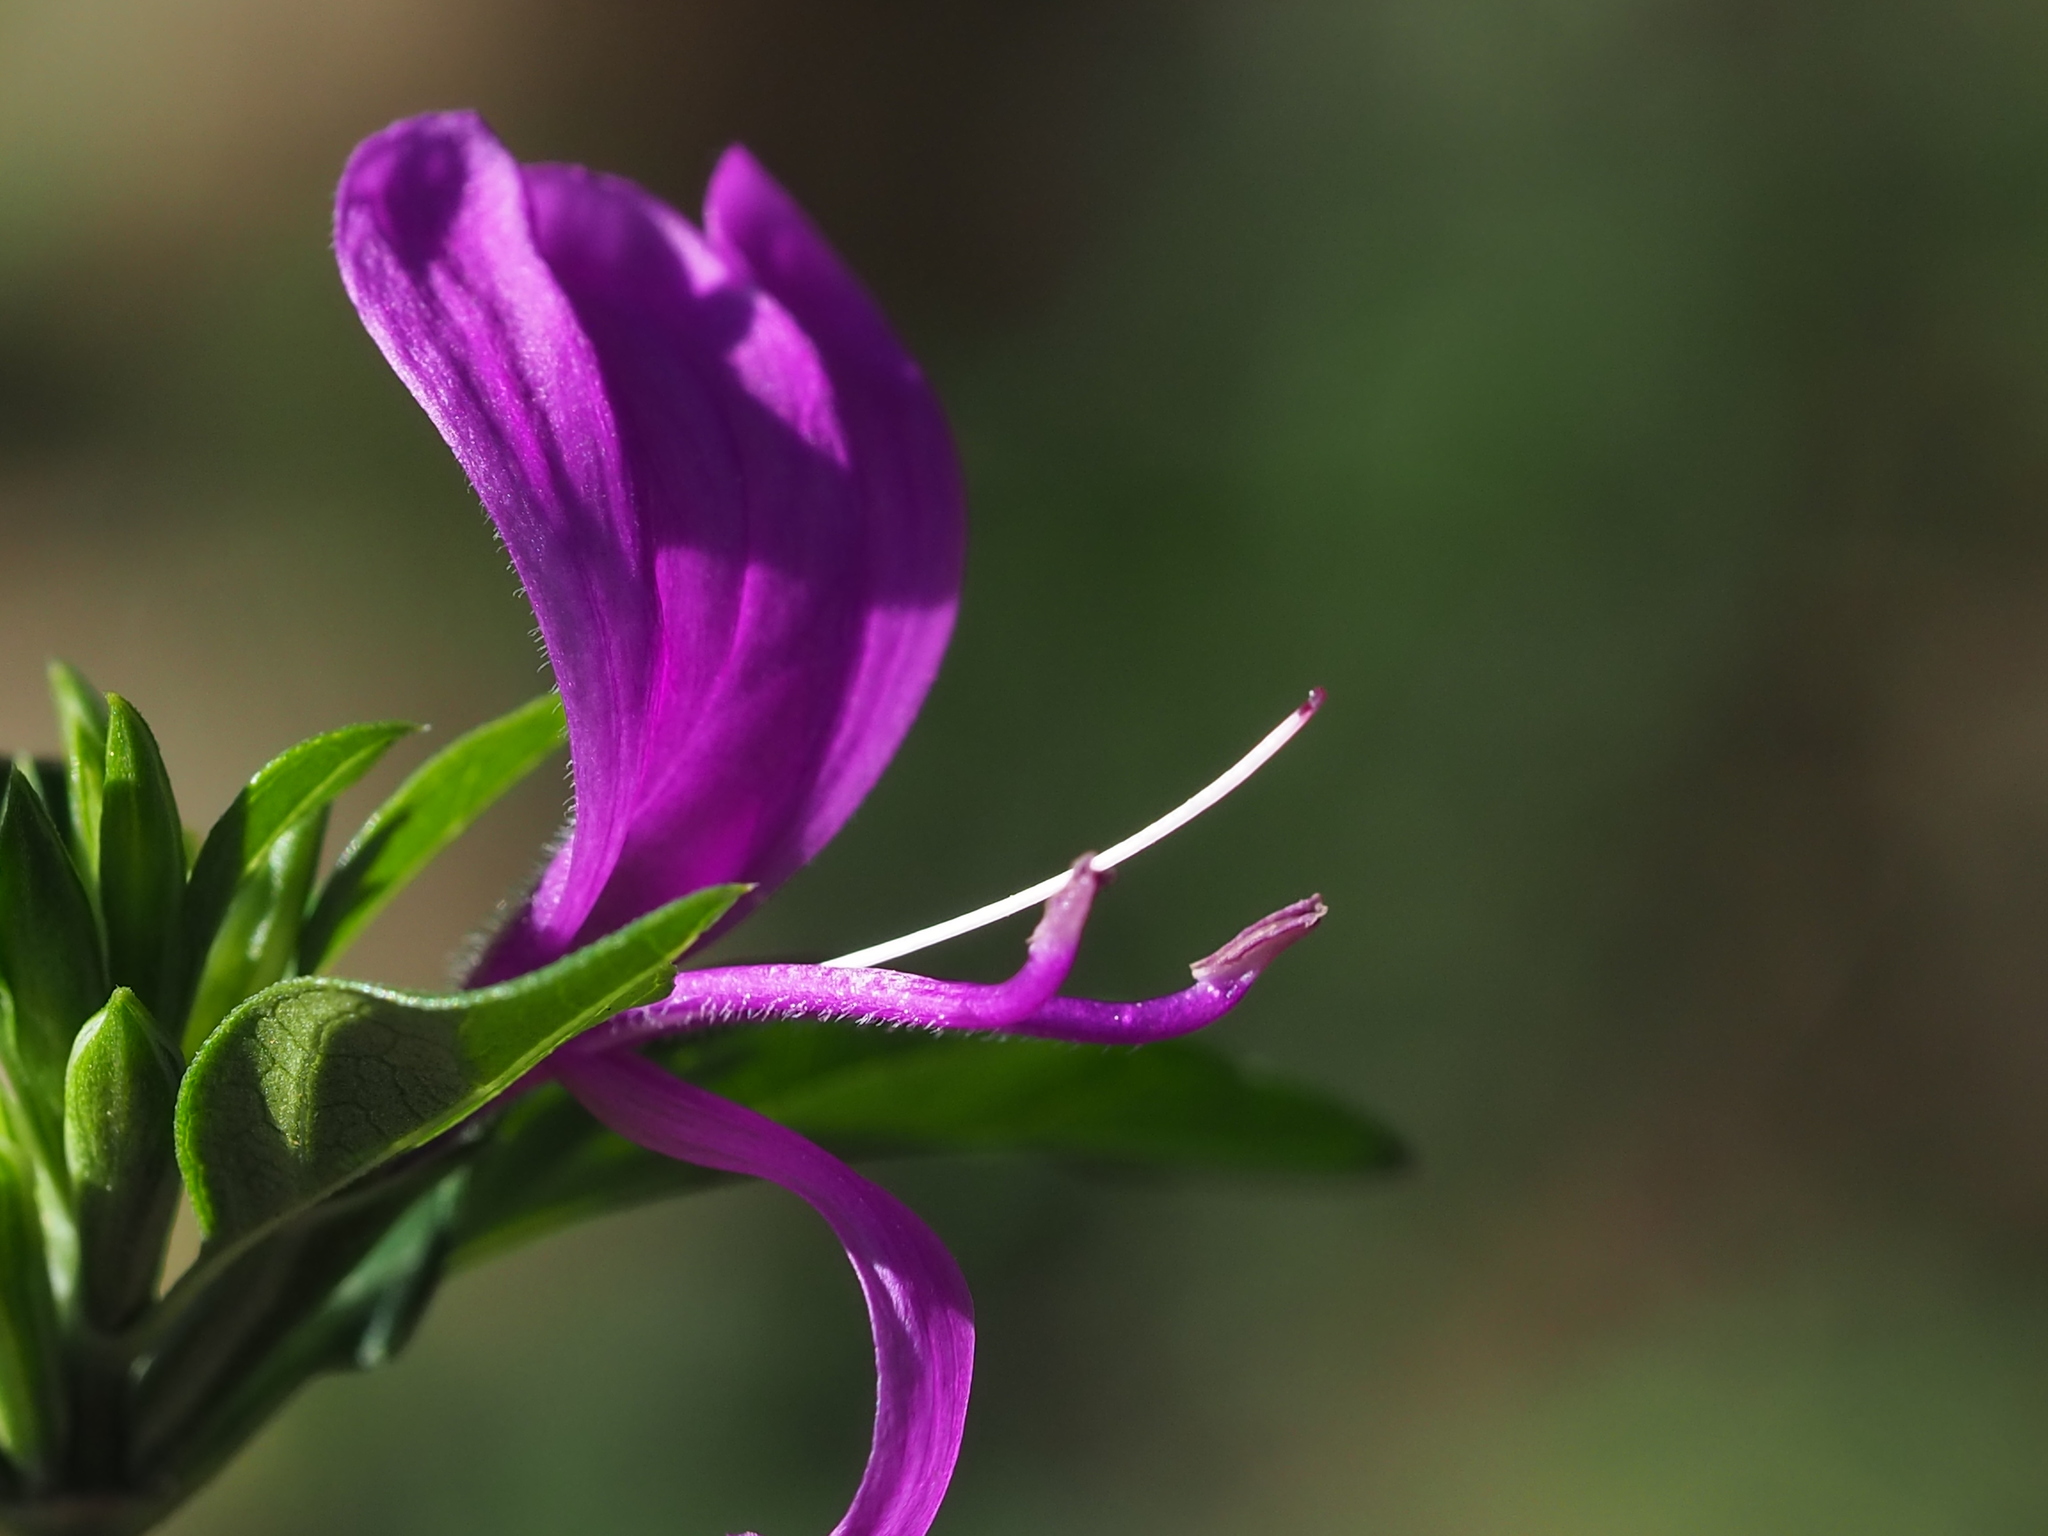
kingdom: Plantae
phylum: Tracheophyta
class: Magnoliopsida
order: Lamiales
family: Acanthaceae
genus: Hypoestes
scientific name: Hypoestes purpurea
